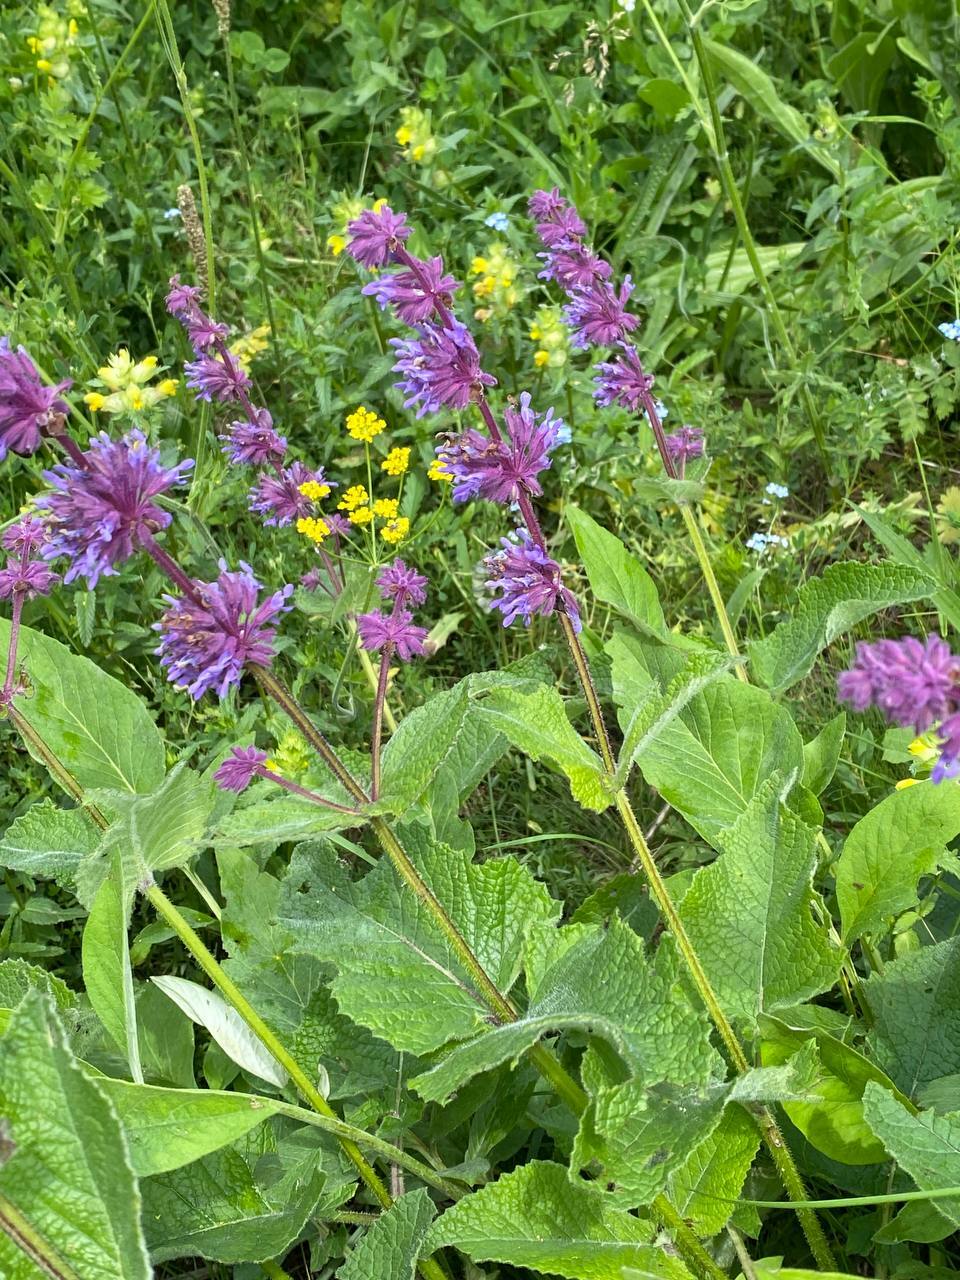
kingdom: Plantae
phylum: Tracheophyta
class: Magnoliopsida
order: Lamiales
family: Lamiaceae
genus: Salvia
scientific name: Salvia verticillata
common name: Whorled clary
